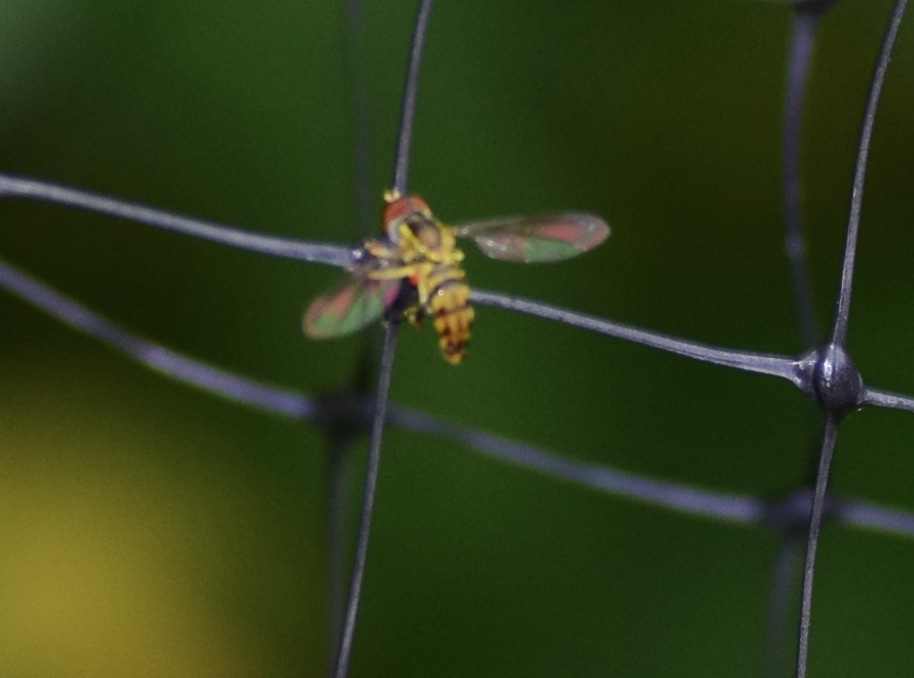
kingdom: Animalia
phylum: Arthropoda
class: Insecta
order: Diptera
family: Syrphidae
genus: Toxomerus
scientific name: Toxomerus geminatus
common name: Eastern calligrapher
